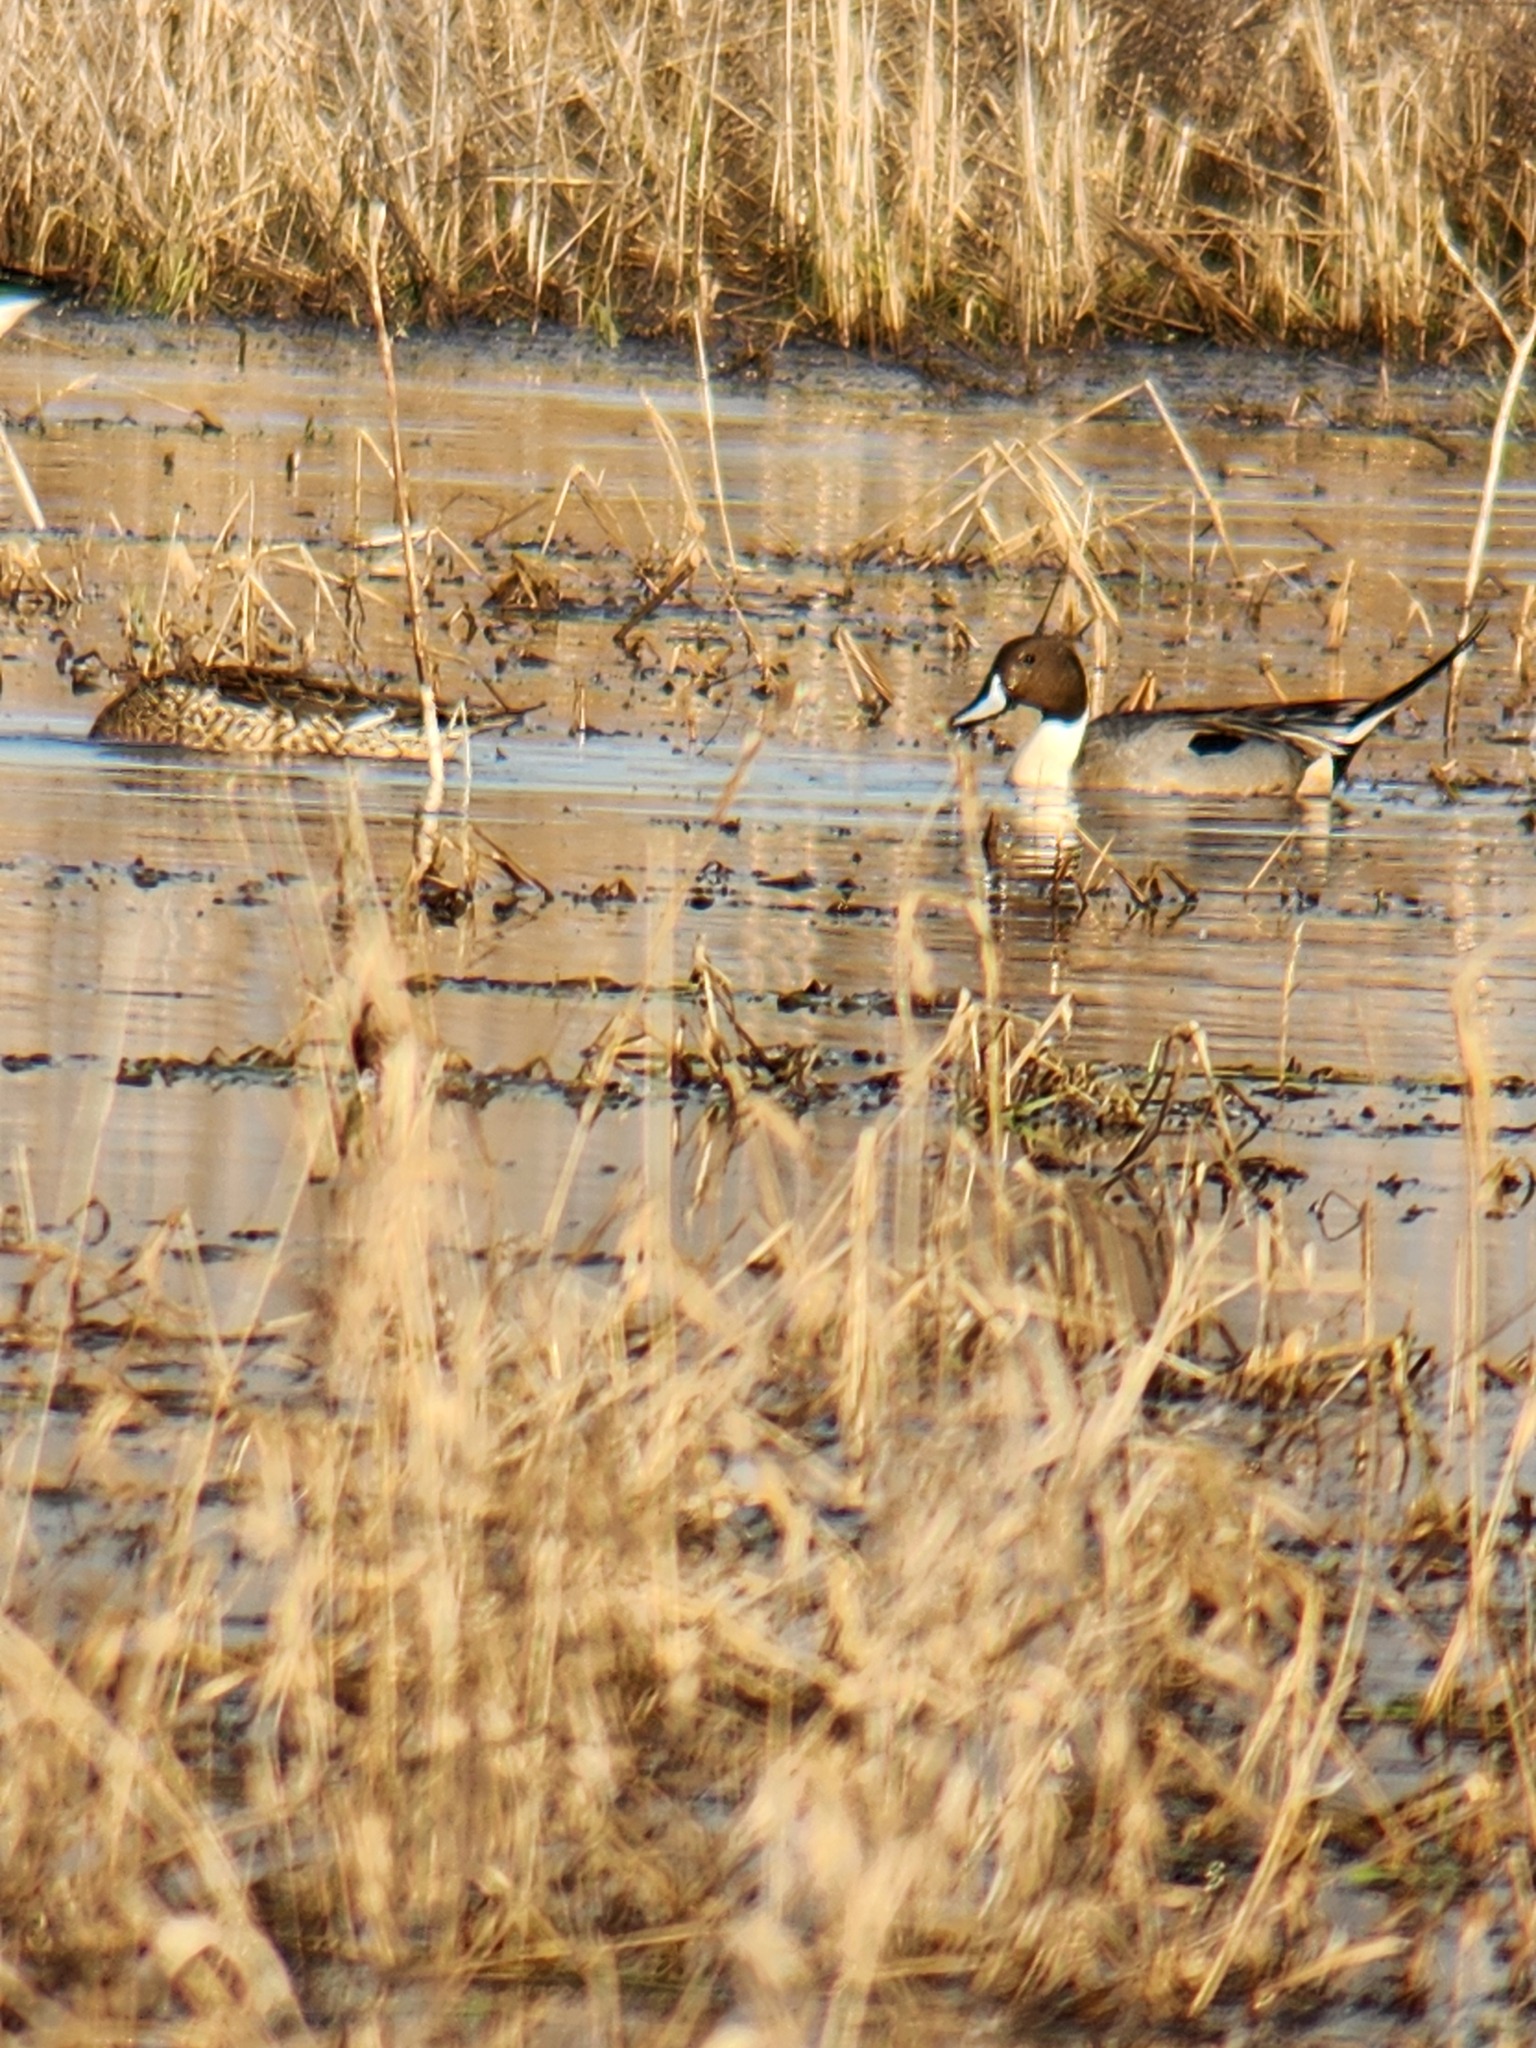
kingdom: Animalia
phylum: Chordata
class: Aves
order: Anseriformes
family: Anatidae
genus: Anas
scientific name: Anas acuta
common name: Northern pintail
